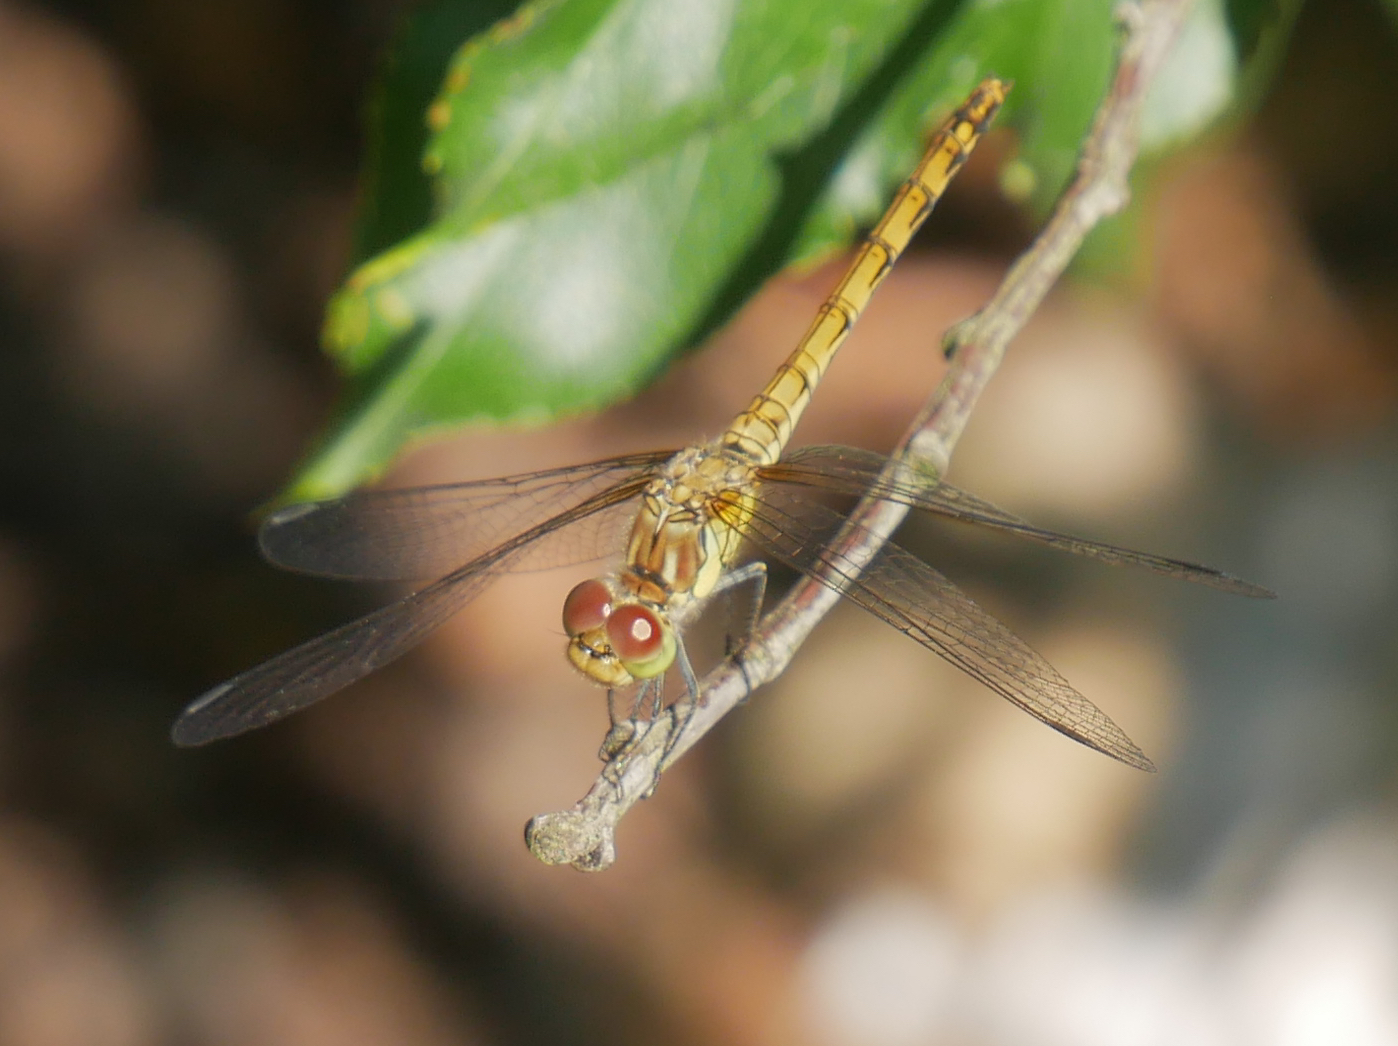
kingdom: Animalia
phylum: Arthropoda
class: Insecta
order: Odonata
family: Libellulidae
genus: Sympetrum
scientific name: Sympetrum striolatum
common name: Common darter
